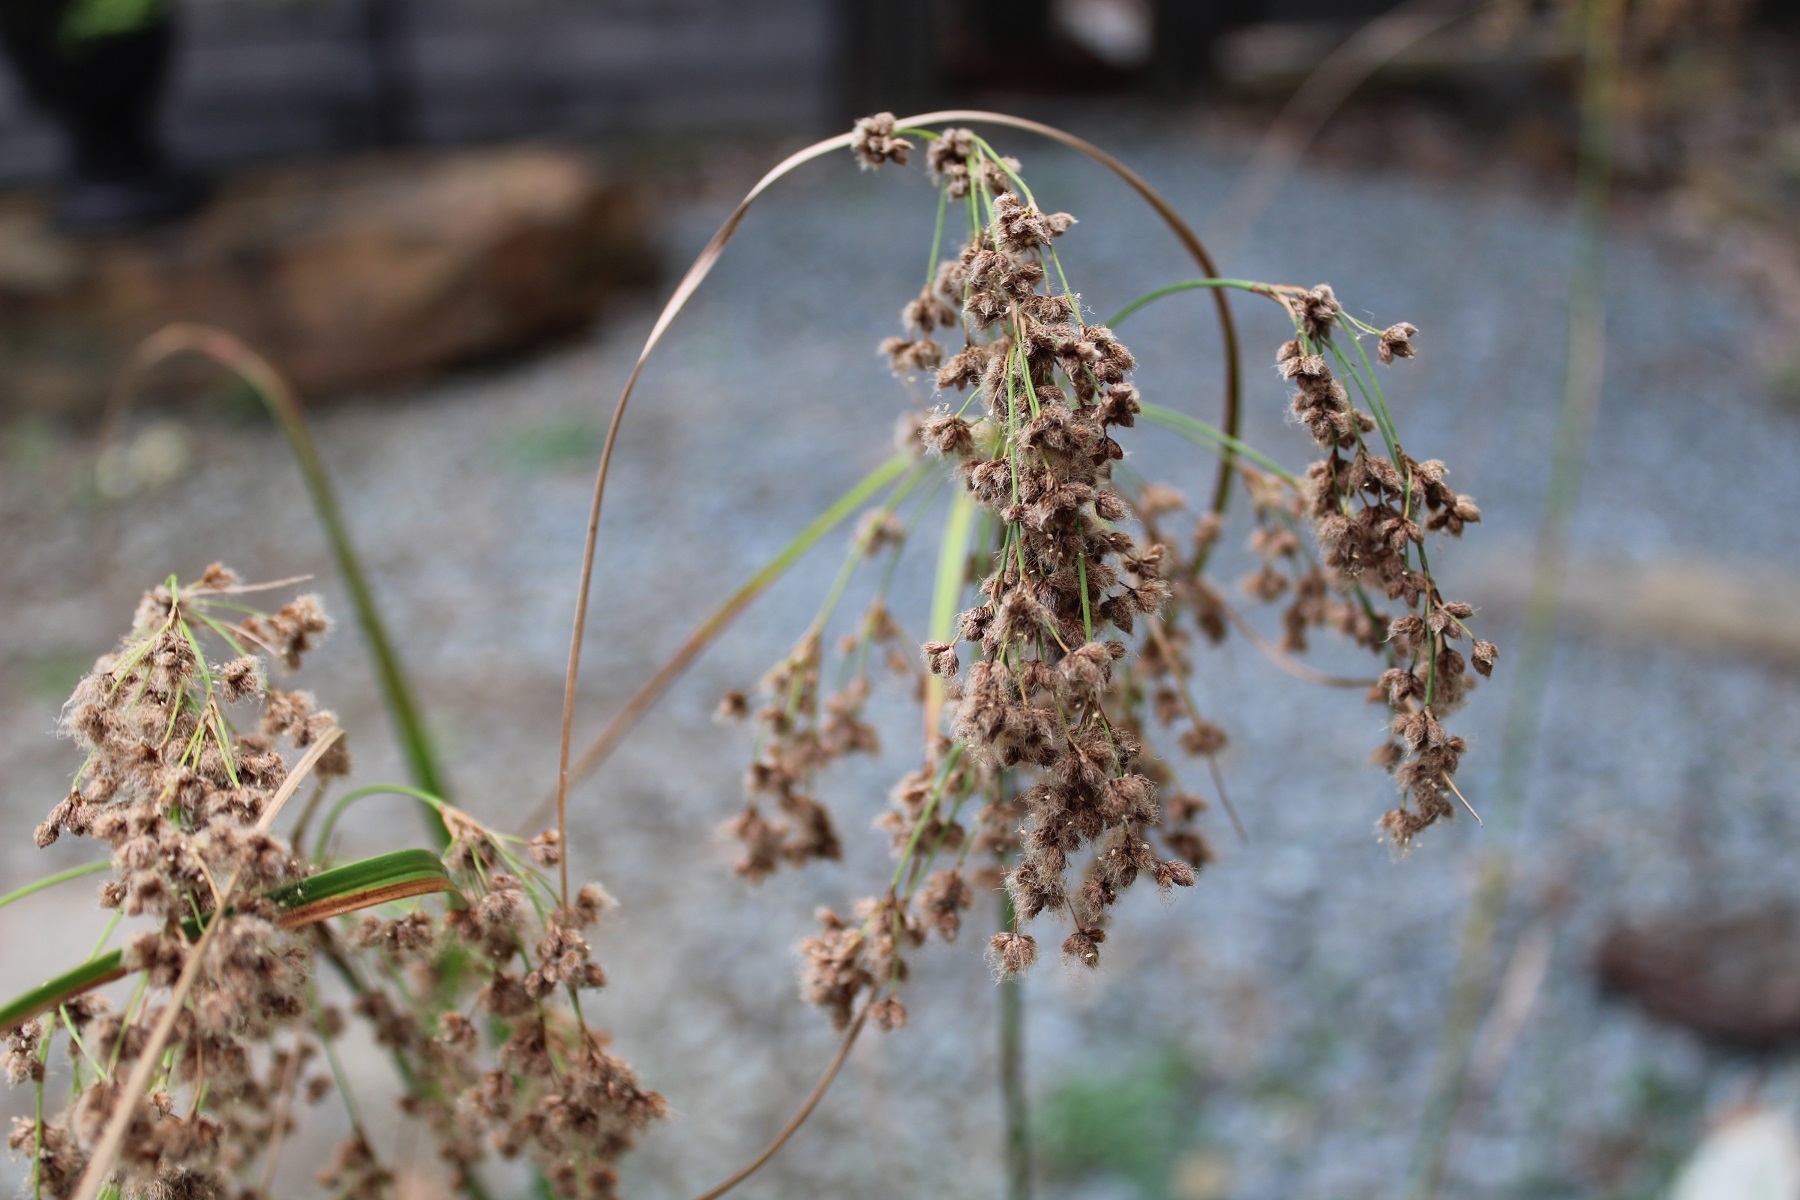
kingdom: Plantae
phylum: Tracheophyta
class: Liliopsida
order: Poales
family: Cyperaceae
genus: Scirpus
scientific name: Scirpus cyperinus
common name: Black-sheathed bulrush
